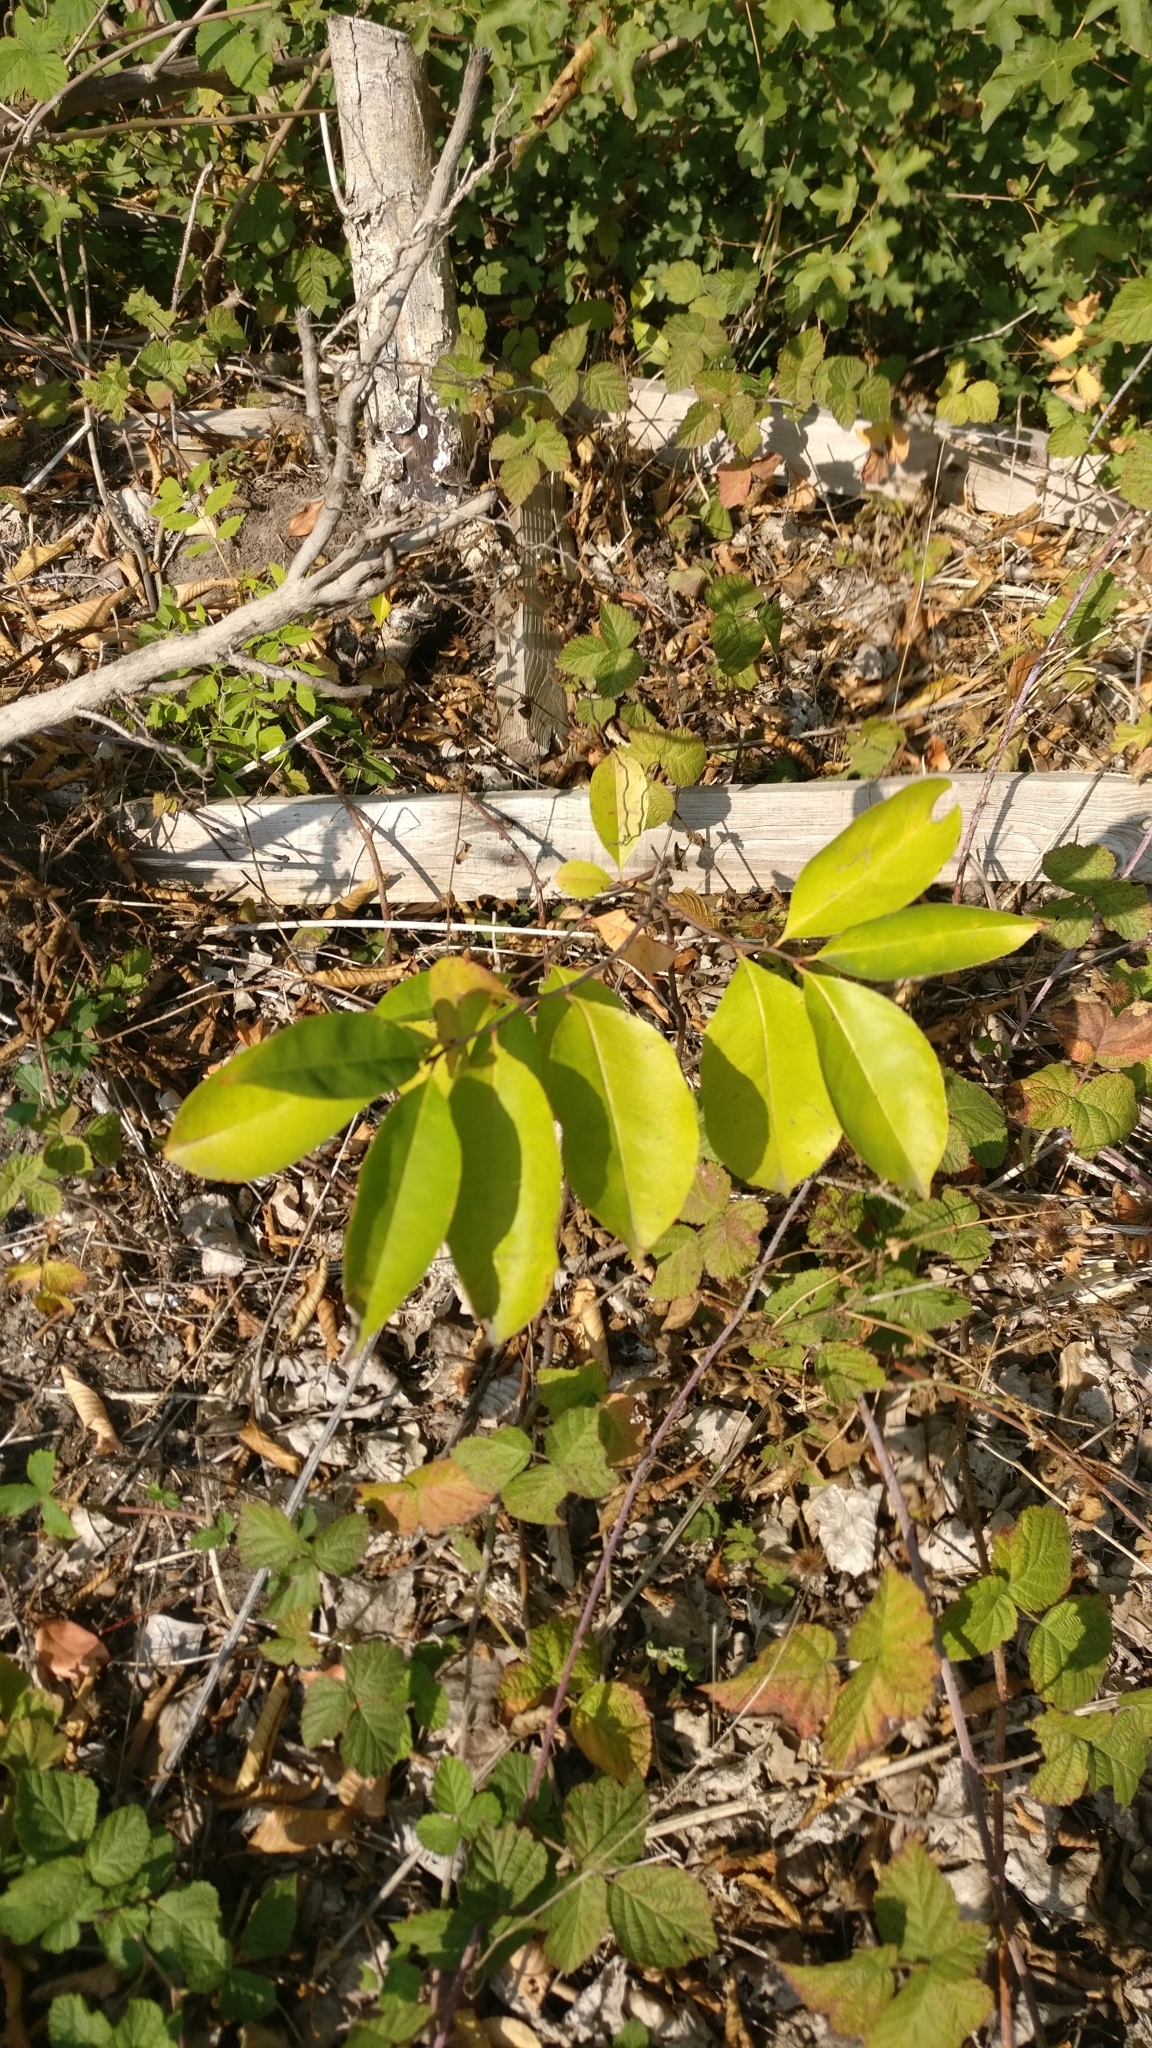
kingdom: Plantae
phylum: Tracheophyta
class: Magnoliopsida
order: Rosales
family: Rosaceae
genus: Prunus
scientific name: Prunus serotina
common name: Black cherry
